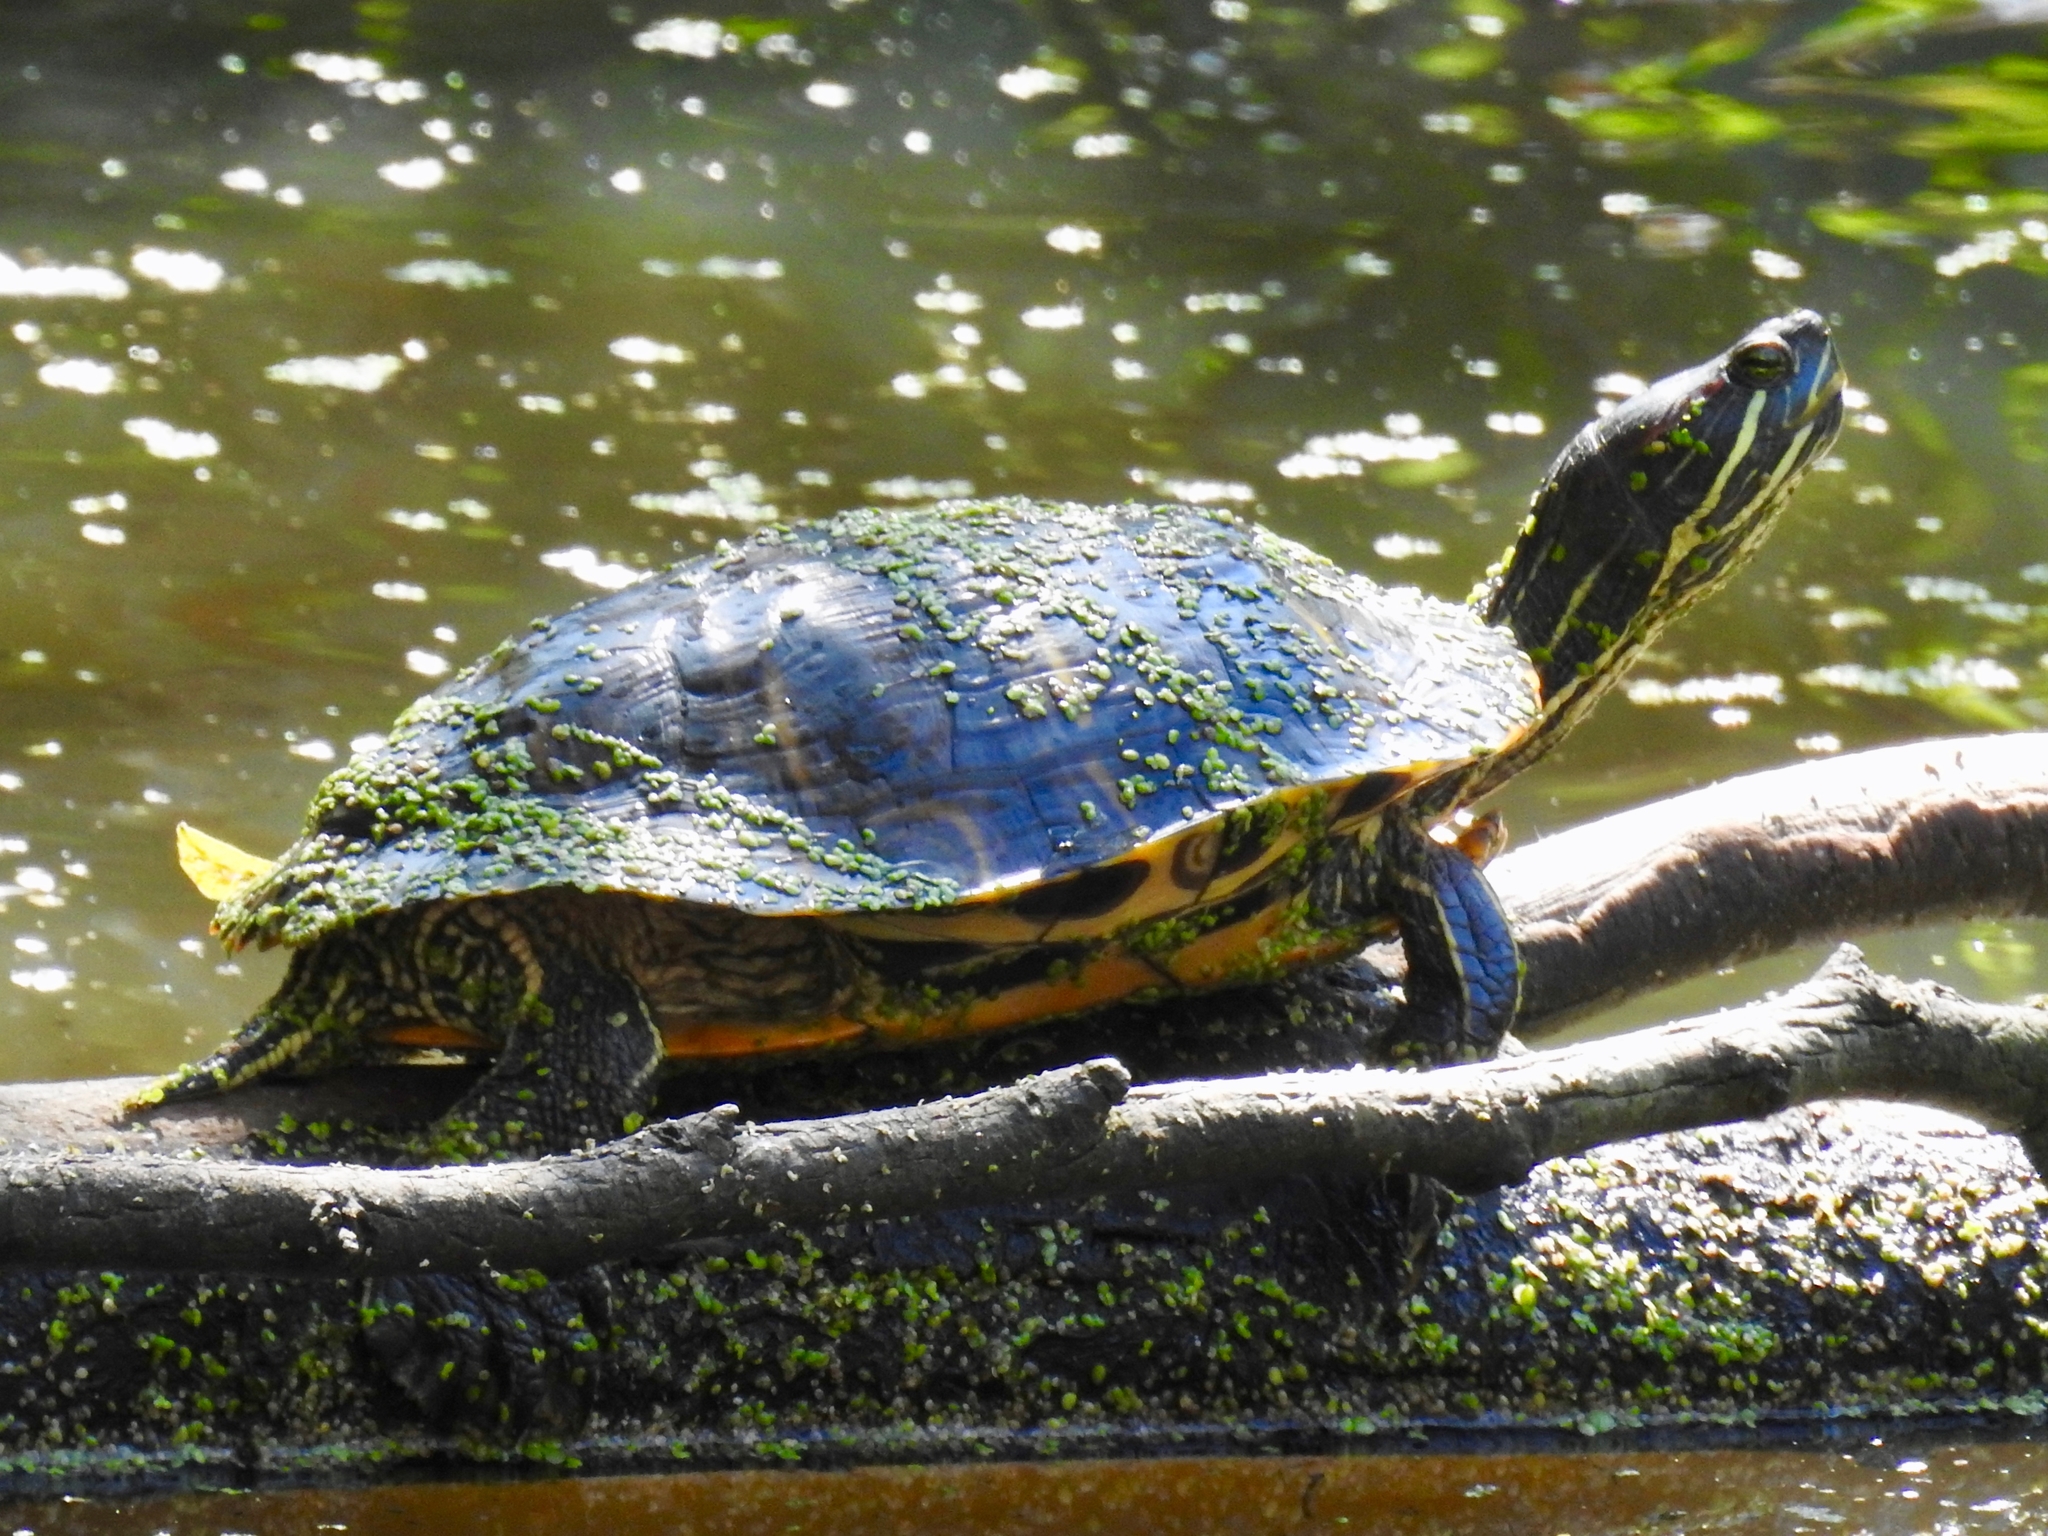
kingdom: Animalia
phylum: Chordata
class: Testudines
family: Emydidae
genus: Trachemys
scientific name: Trachemys scripta
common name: Slider
